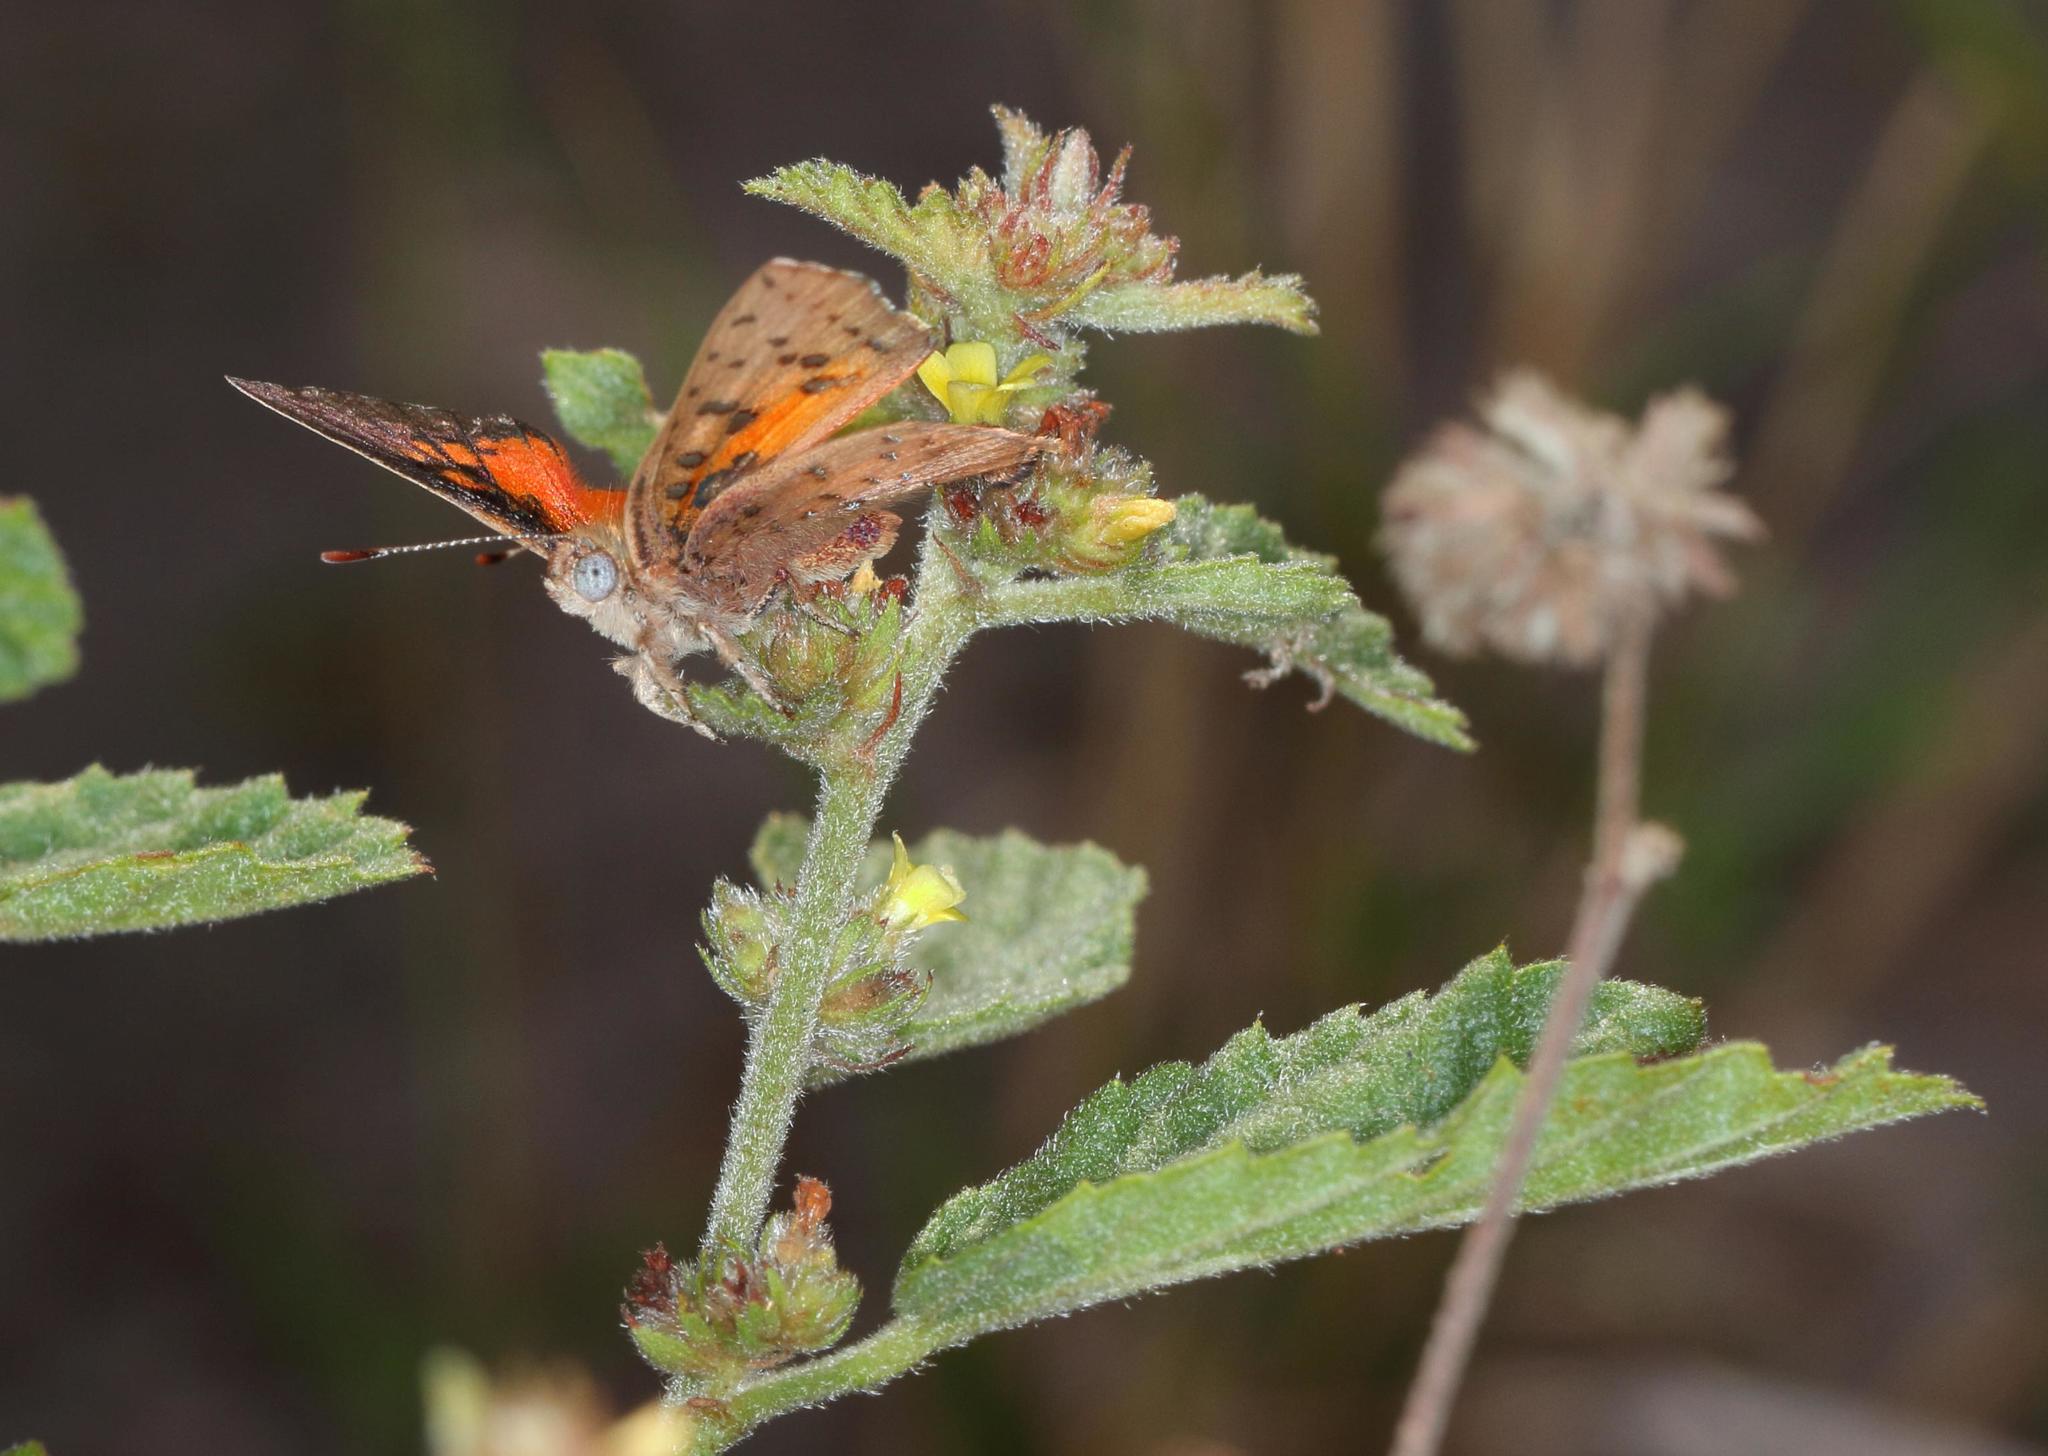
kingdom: Plantae
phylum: Tracheophyta
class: Magnoliopsida
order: Malvales
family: Malvaceae
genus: Waltheria
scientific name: Waltheria indica
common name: Leather-coat
